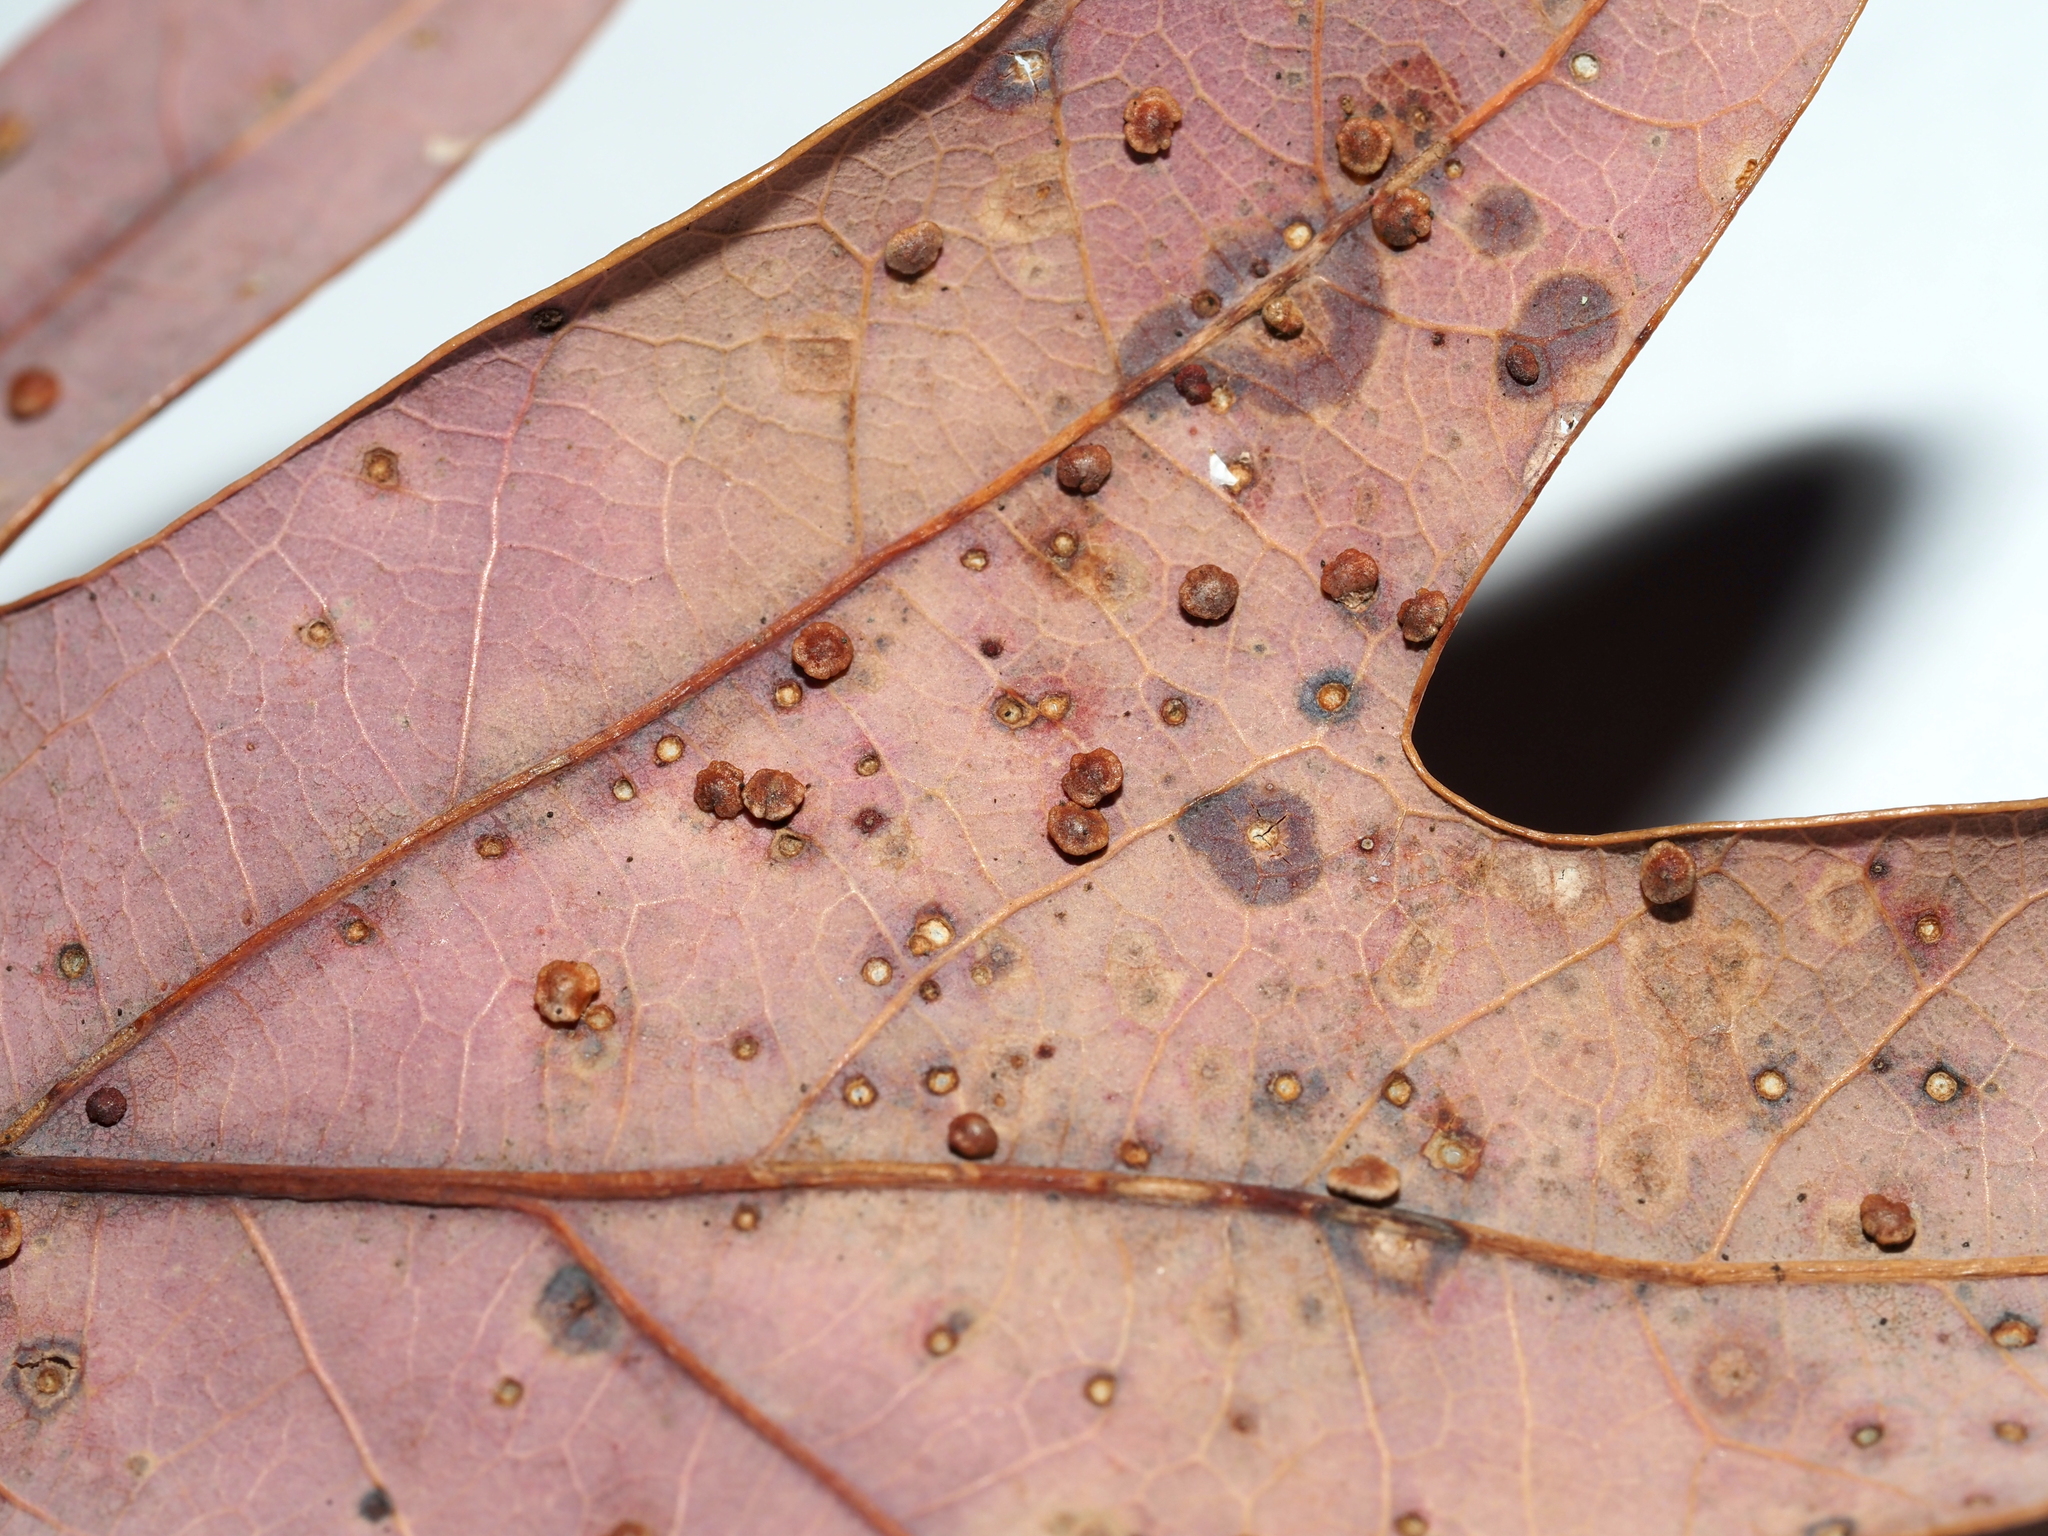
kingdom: Animalia
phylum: Arthropoda
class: Insecta
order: Hymenoptera
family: Cynipidae
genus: Neuroterus
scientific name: Neuroterus
